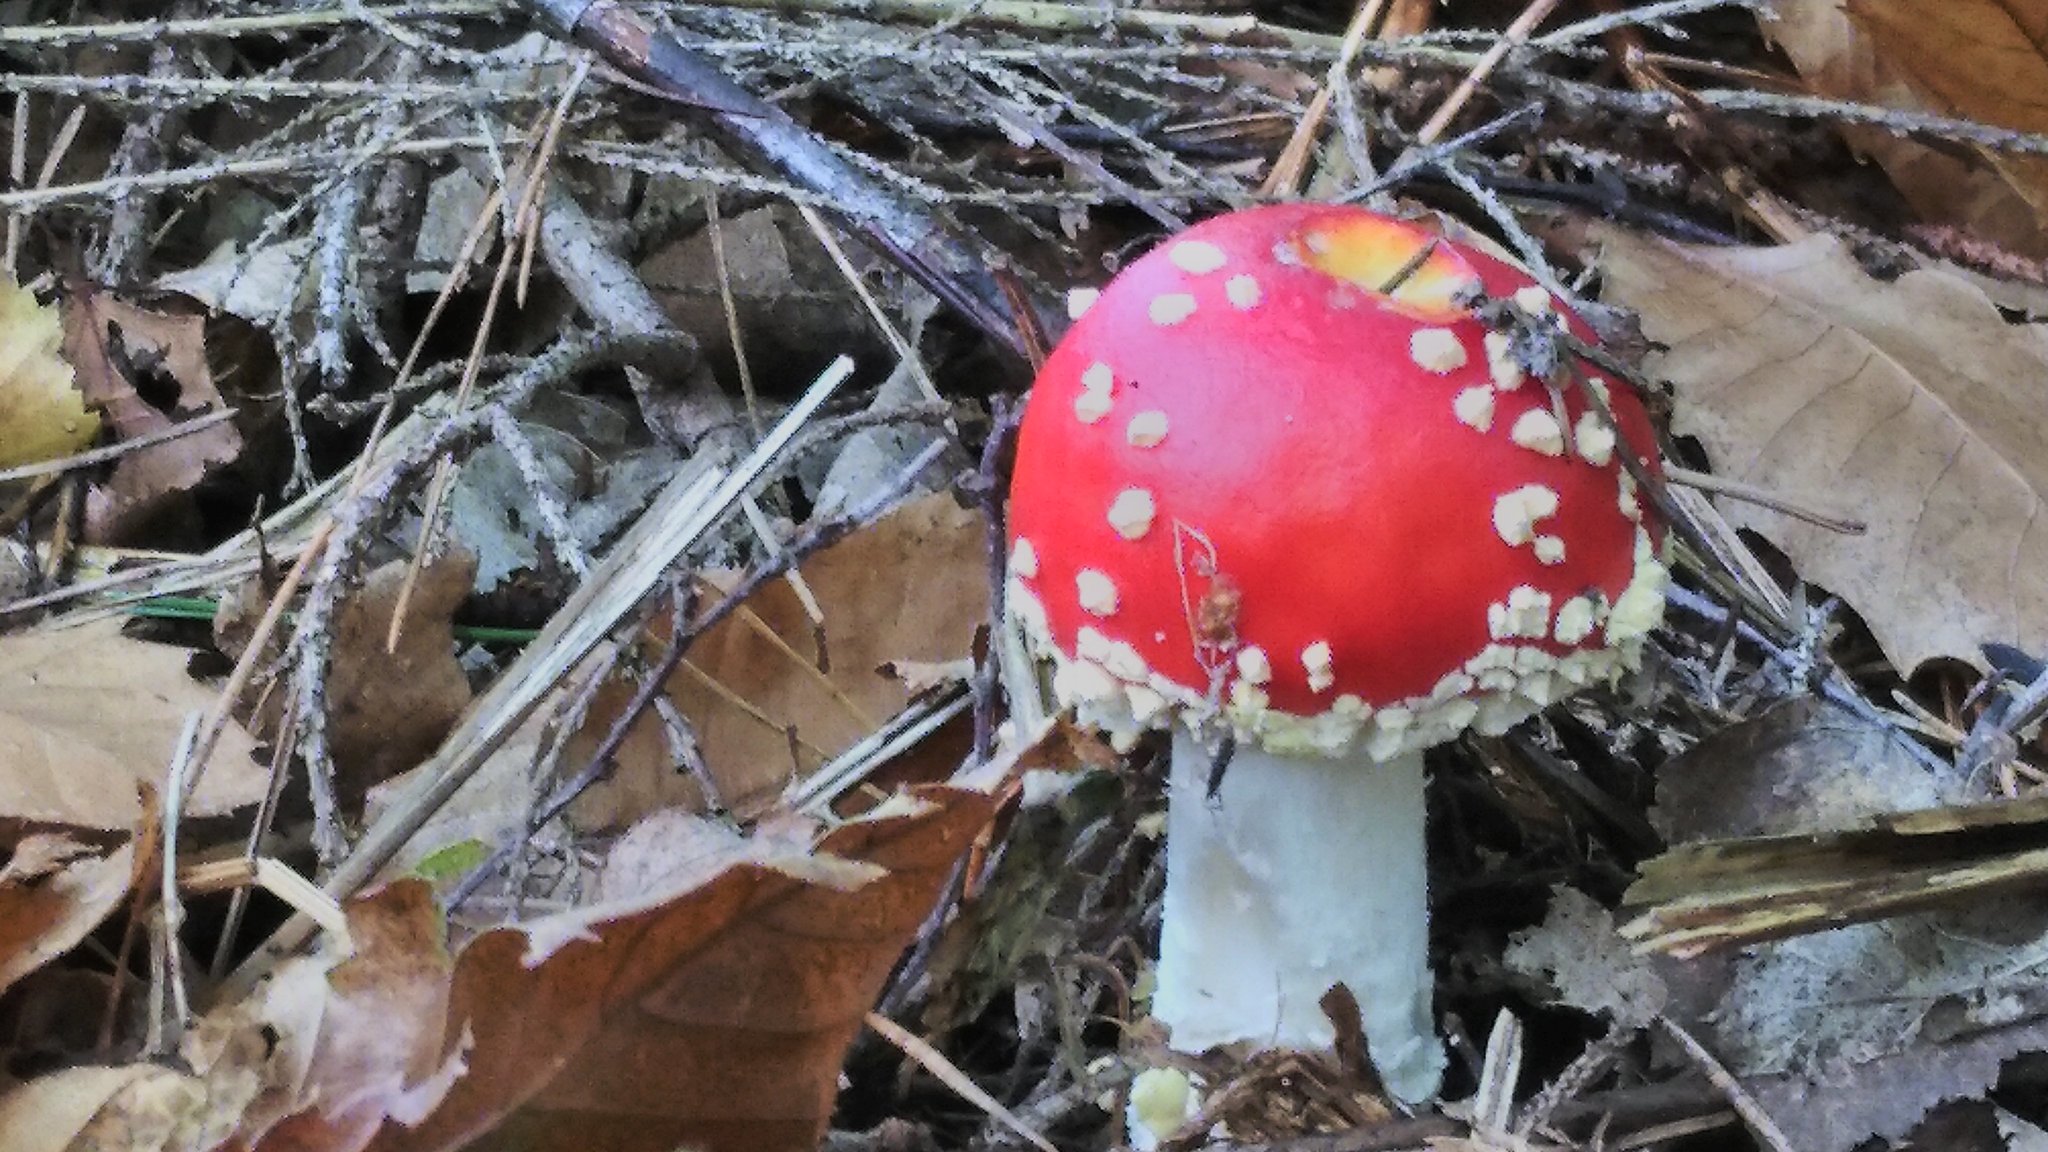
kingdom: Fungi
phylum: Basidiomycota
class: Agaricomycetes
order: Agaricales
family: Amanitaceae
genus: Amanita
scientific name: Amanita muscaria
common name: Fly agaric
